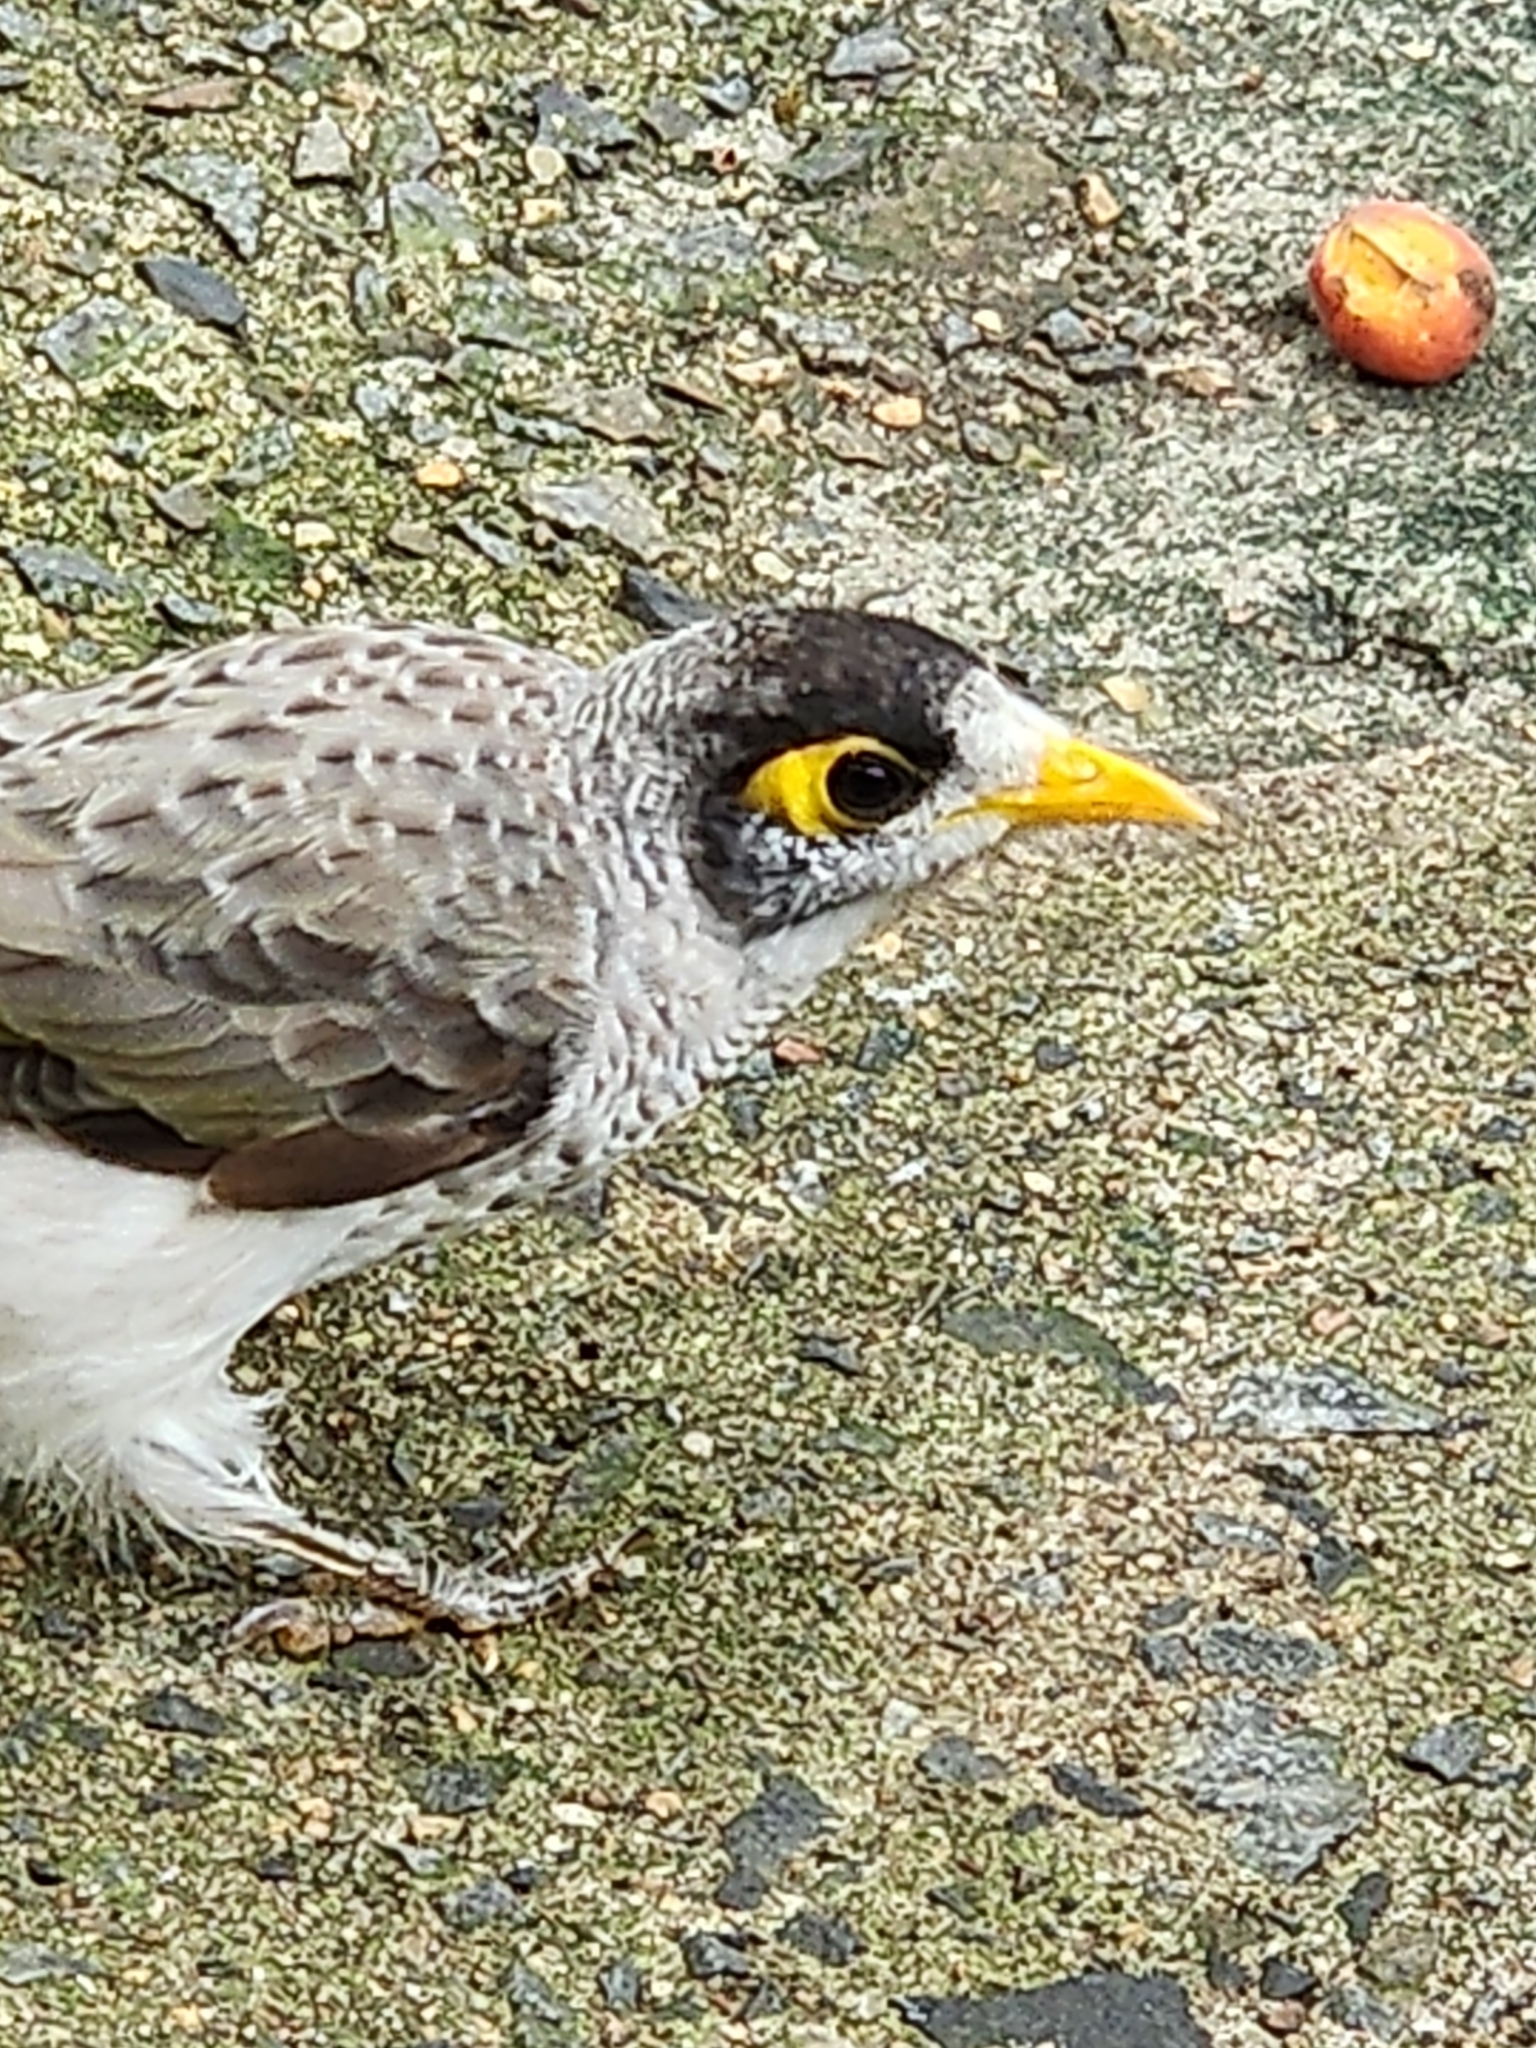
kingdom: Animalia
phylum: Chordata
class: Aves
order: Passeriformes
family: Meliphagidae
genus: Manorina
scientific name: Manorina melanocephala
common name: Noisy miner
